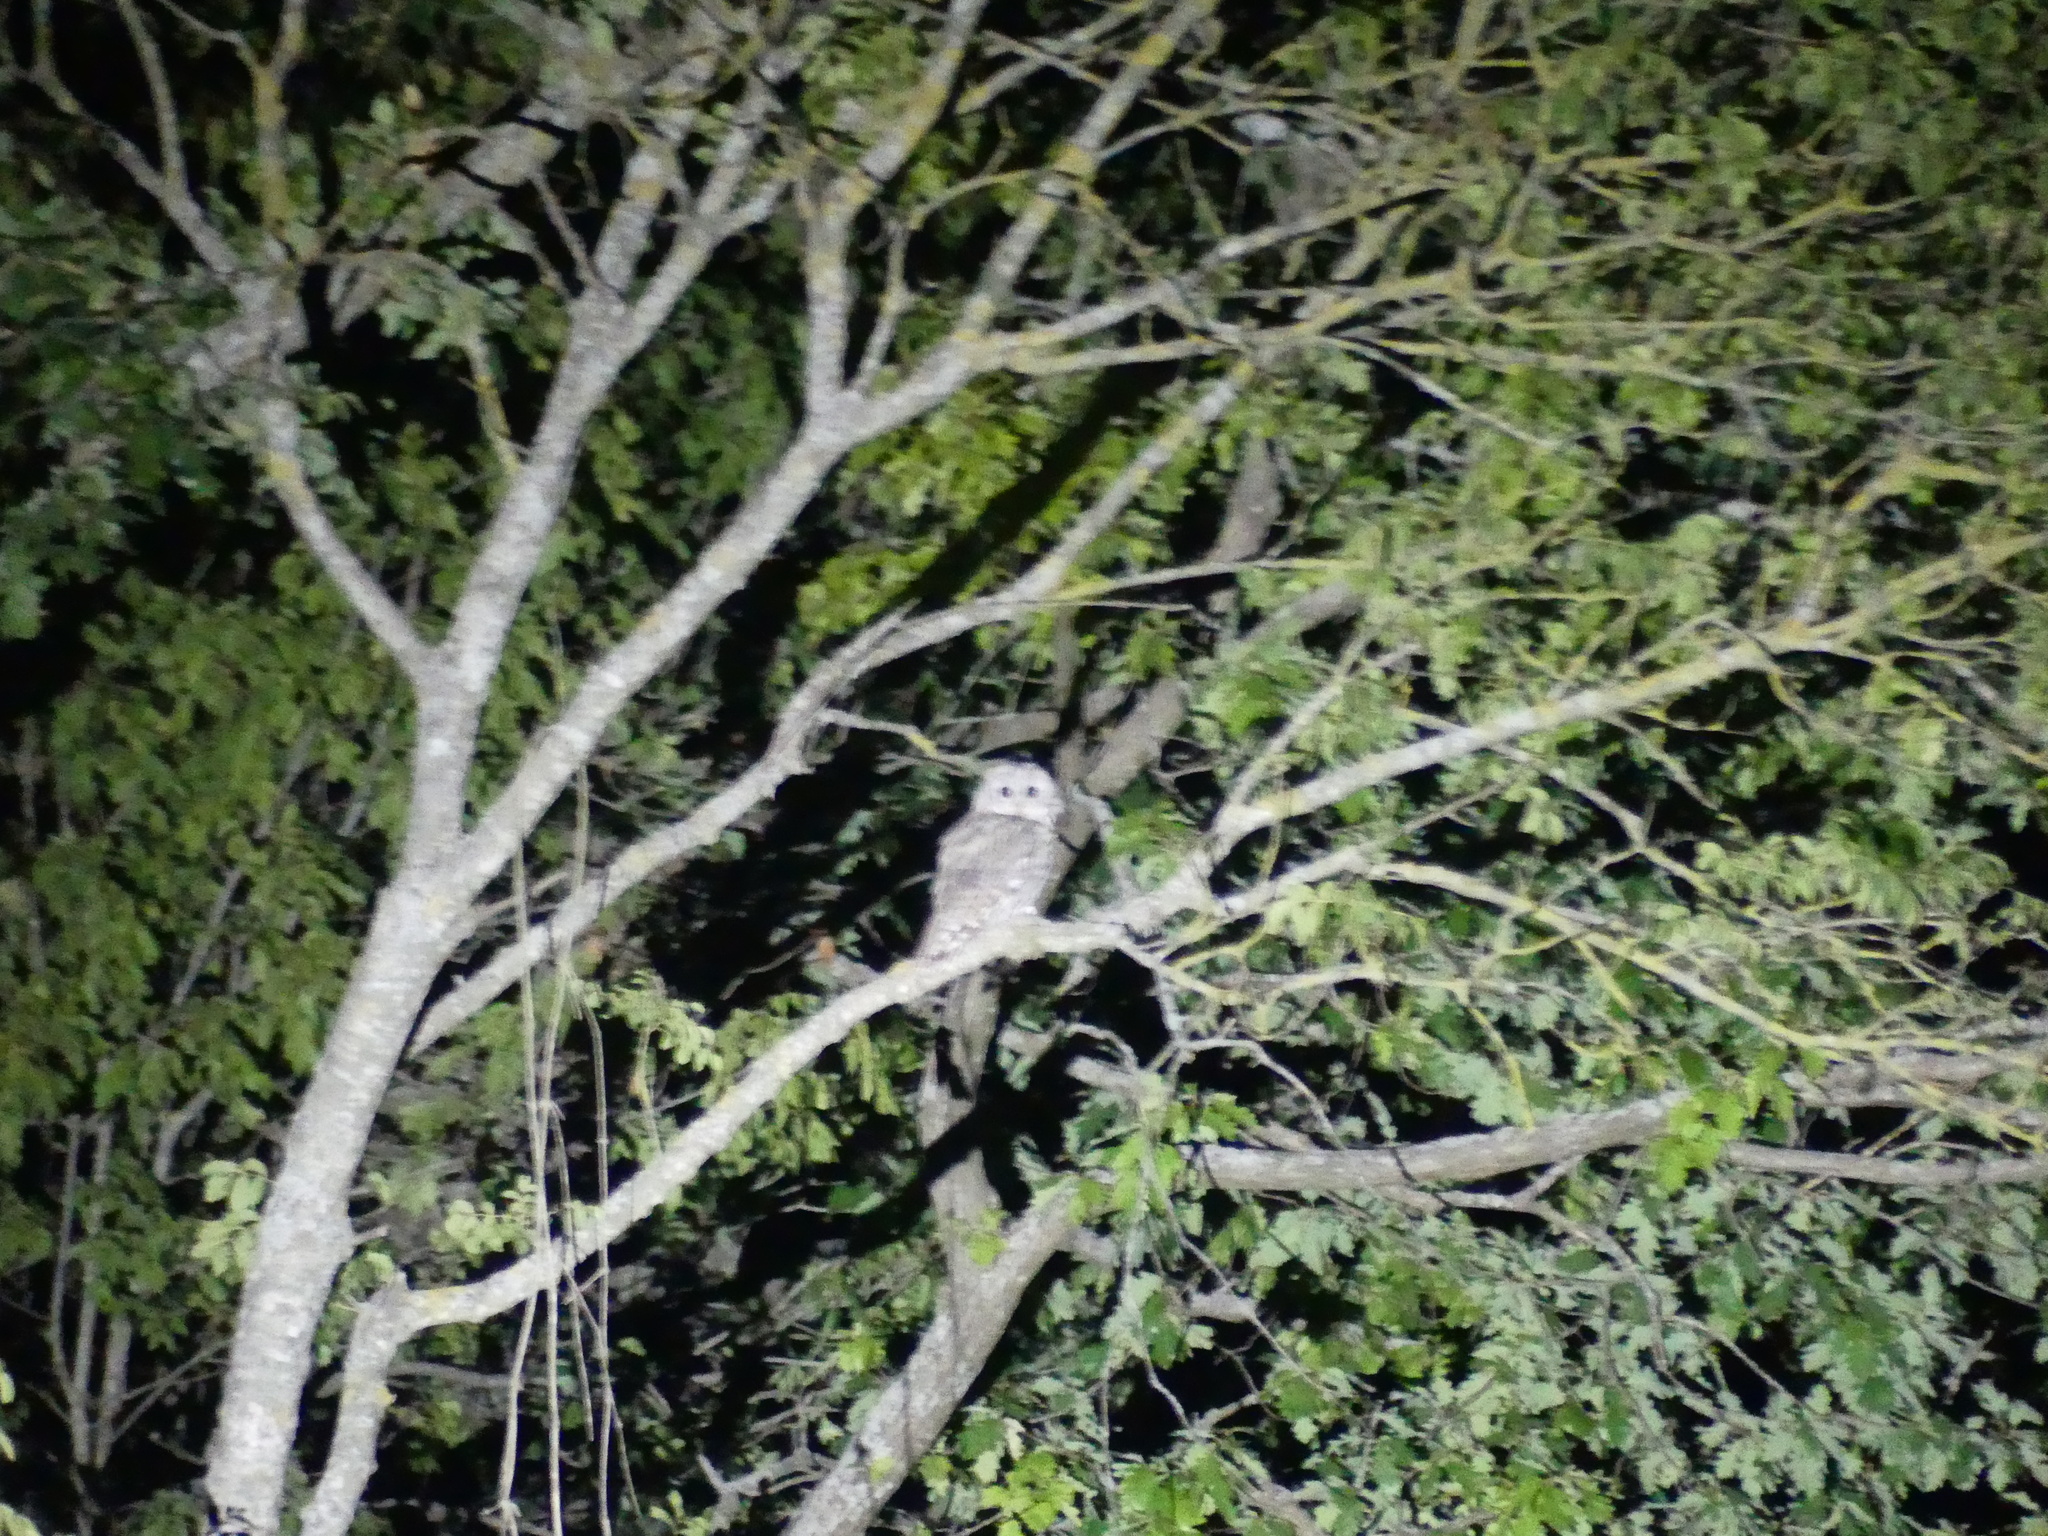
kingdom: Animalia
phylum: Chordata
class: Aves
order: Strigiformes
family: Strigidae
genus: Strix
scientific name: Strix aluco
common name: Tawny owl
